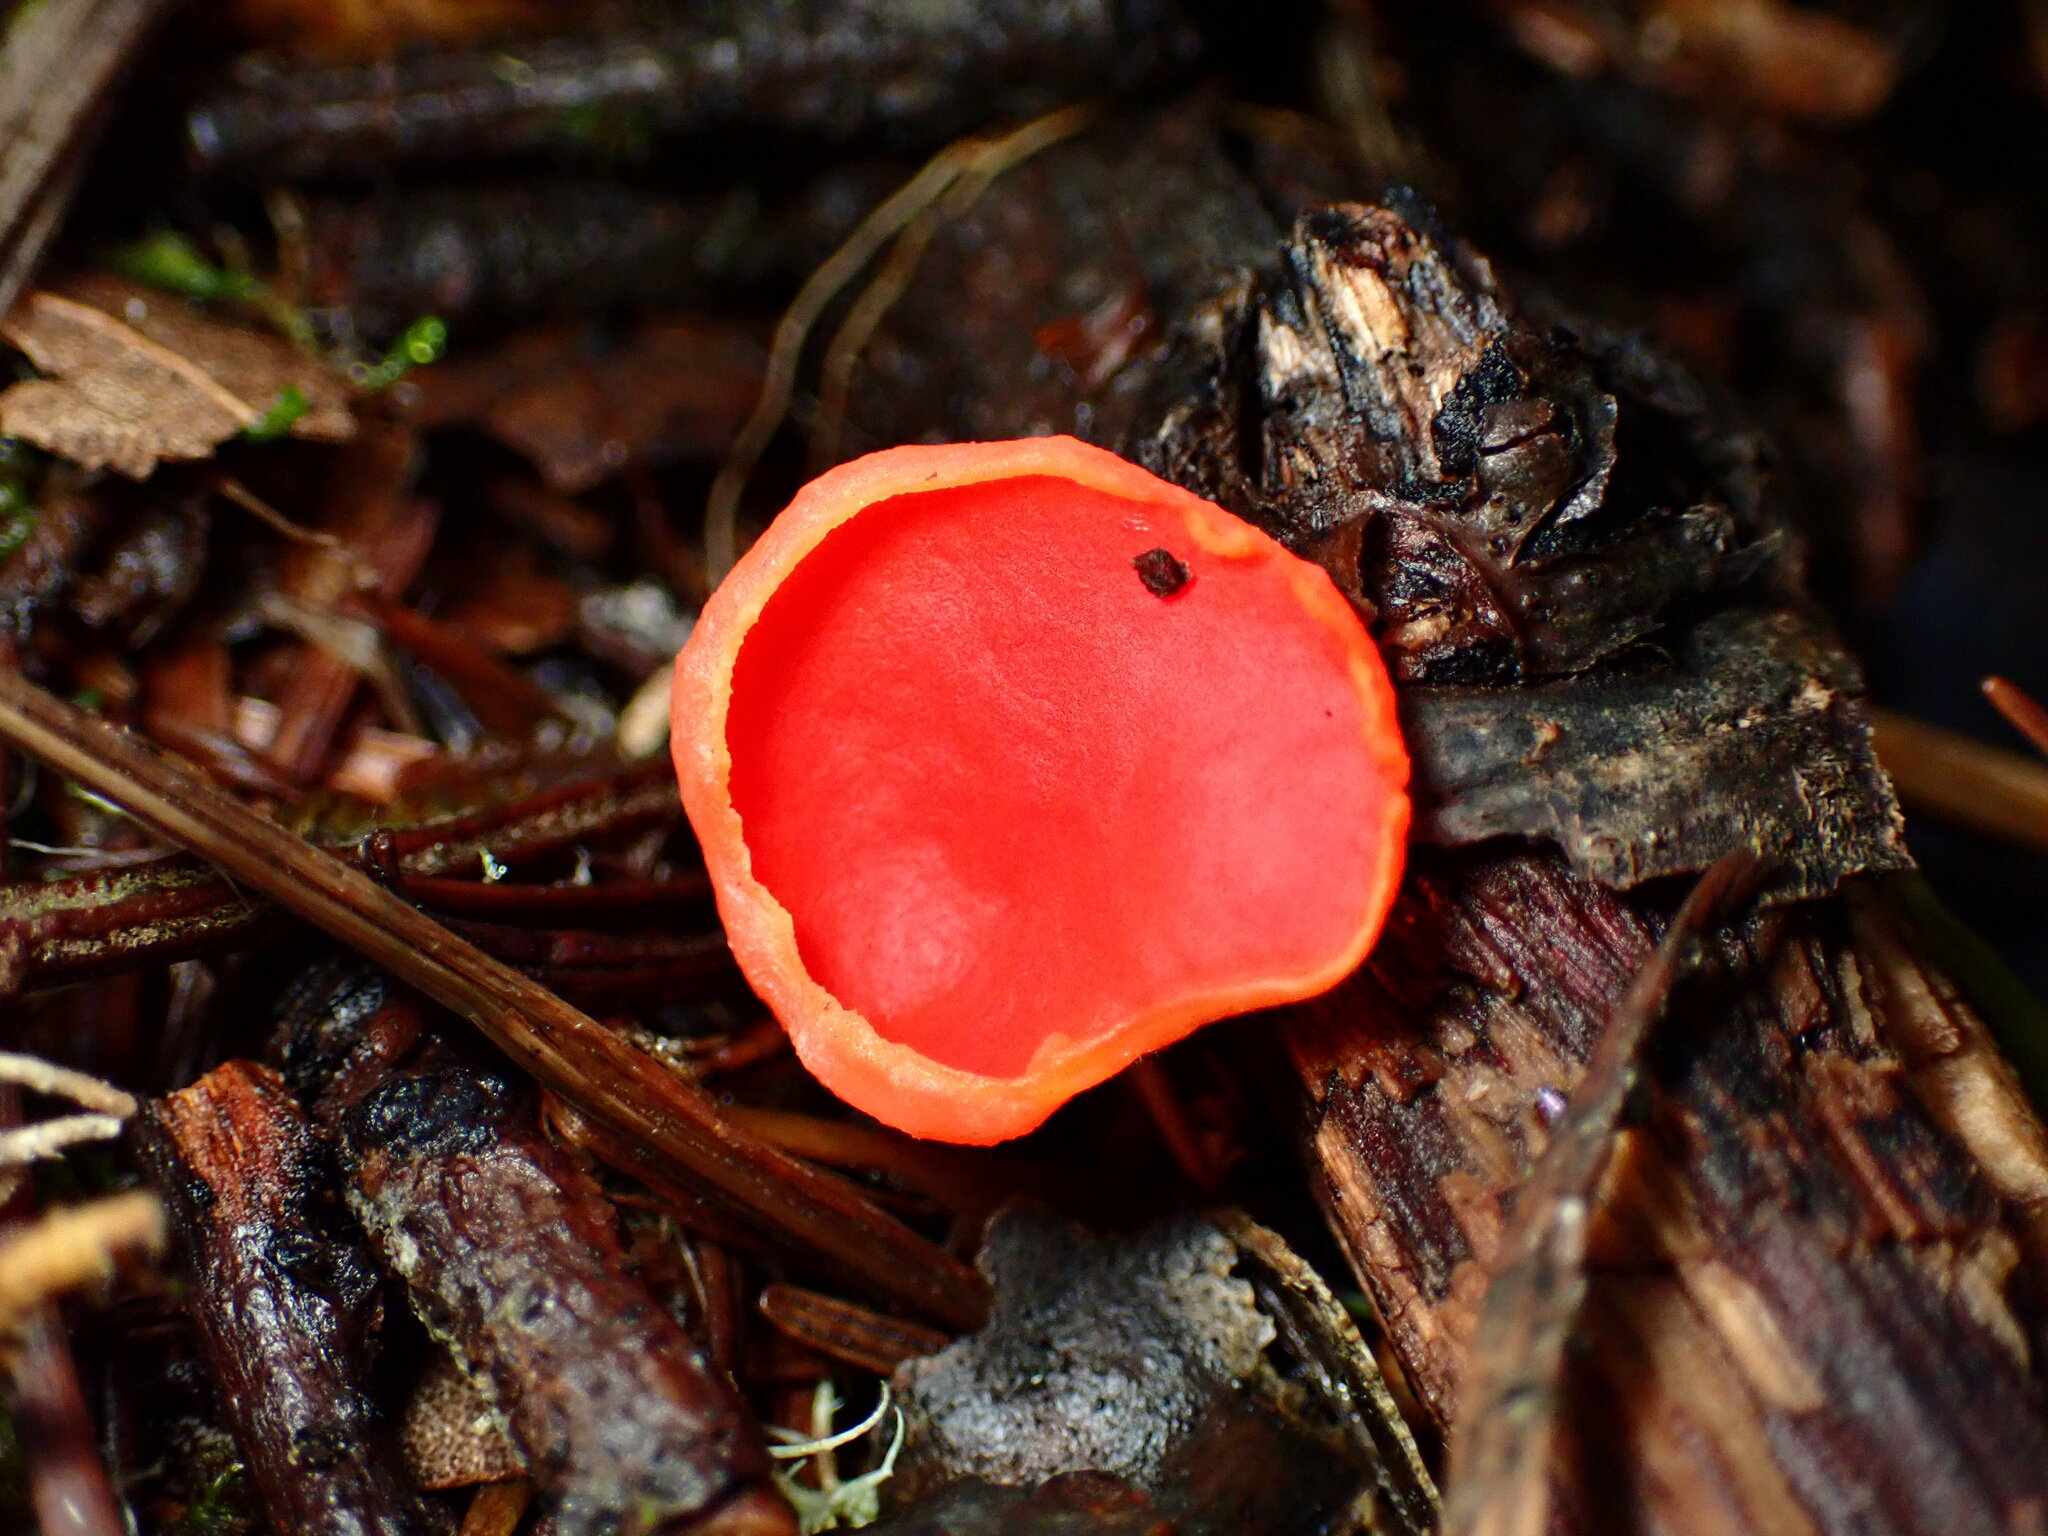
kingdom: Fungi
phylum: Ascomycota
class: Pezizomycetes
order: Pezizales
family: Sarcoscyphaceae
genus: Sarcoscypha
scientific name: Sarcoscypha coccinea
